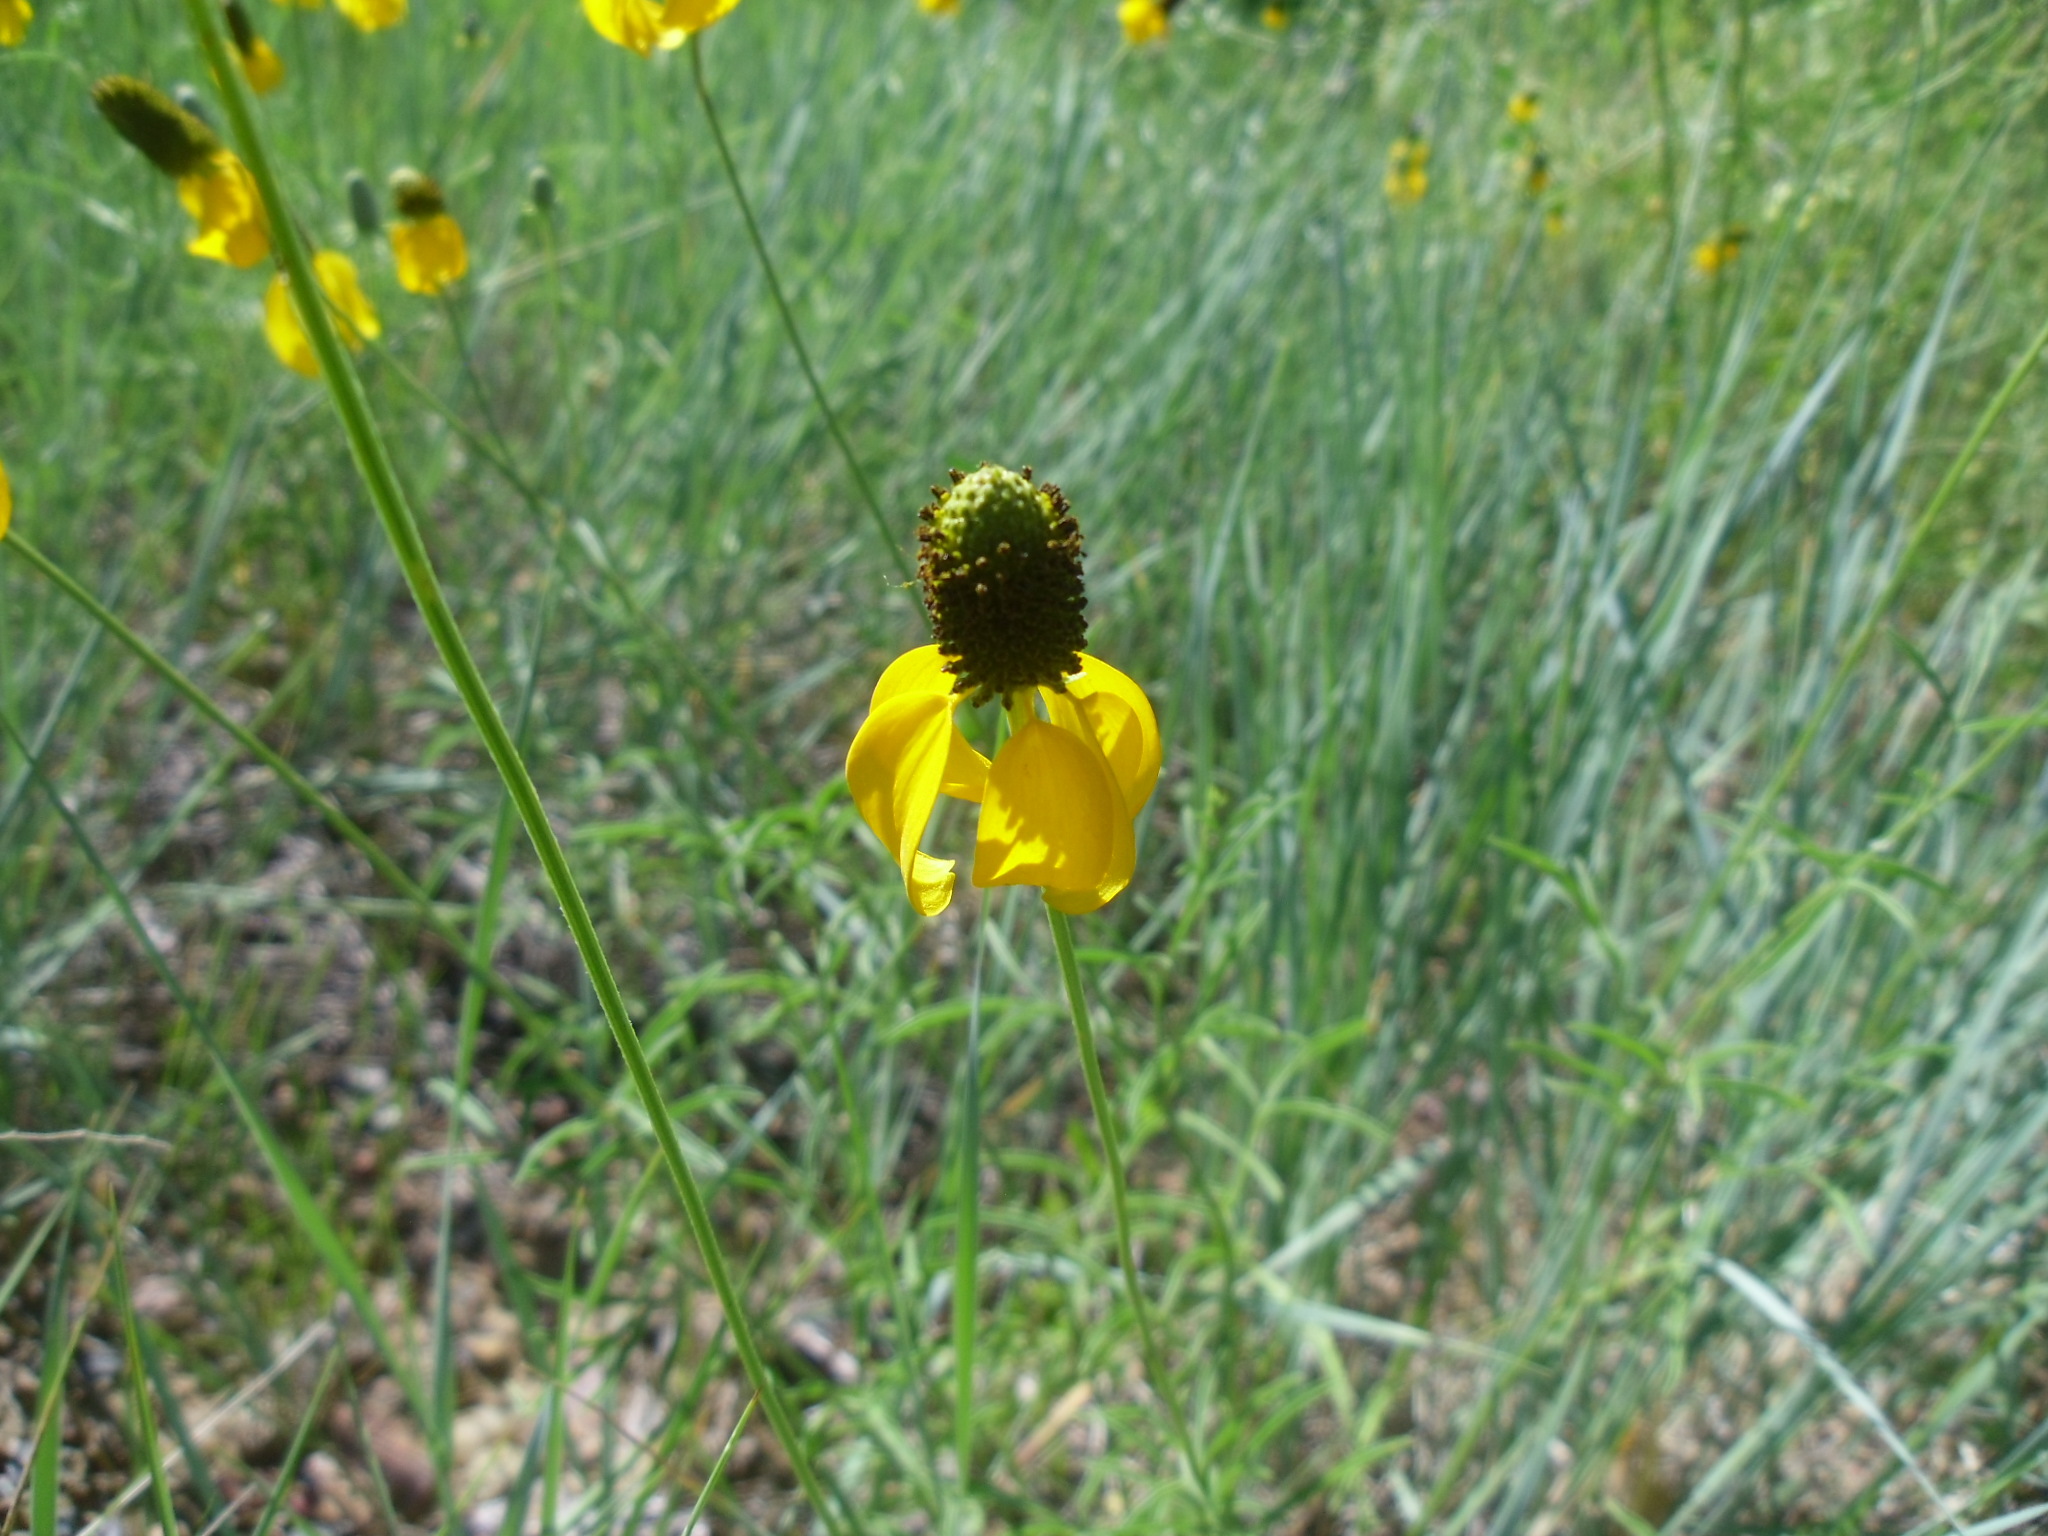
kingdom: Plantae
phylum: Tracheophyta
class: Magnoliopsida
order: Asterales
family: Asteraceae
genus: Ratibida
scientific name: Ratibida columnifera
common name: Prairie coneflower
